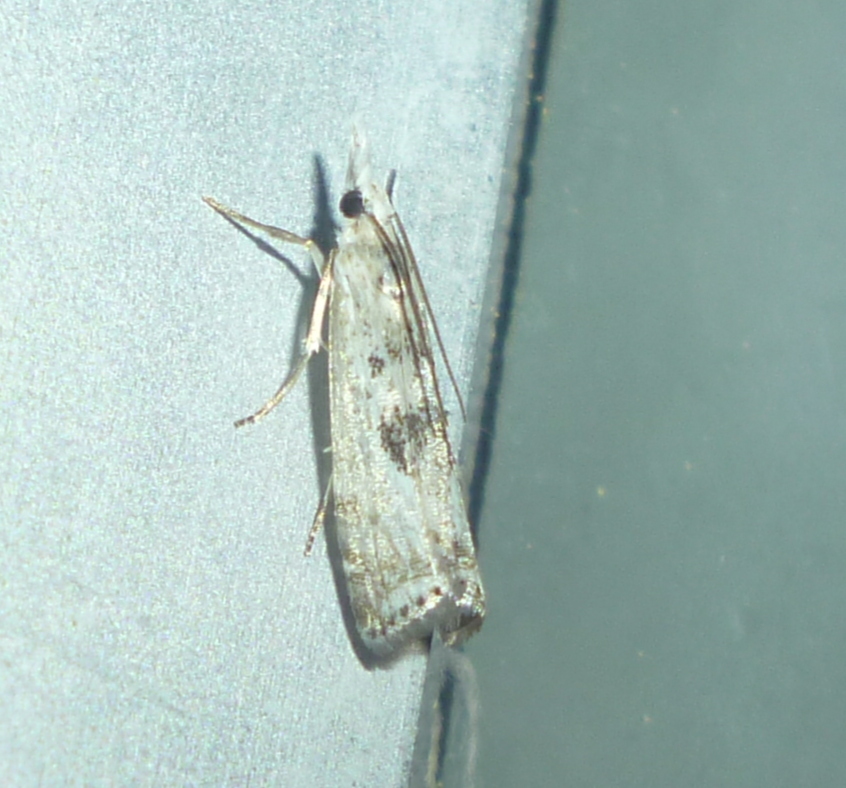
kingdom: Animalia
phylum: Arthropoda
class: Insecta
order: Lepidoptera
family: Crambidae
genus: Microcrambus
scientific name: Microcrambus immunellus
